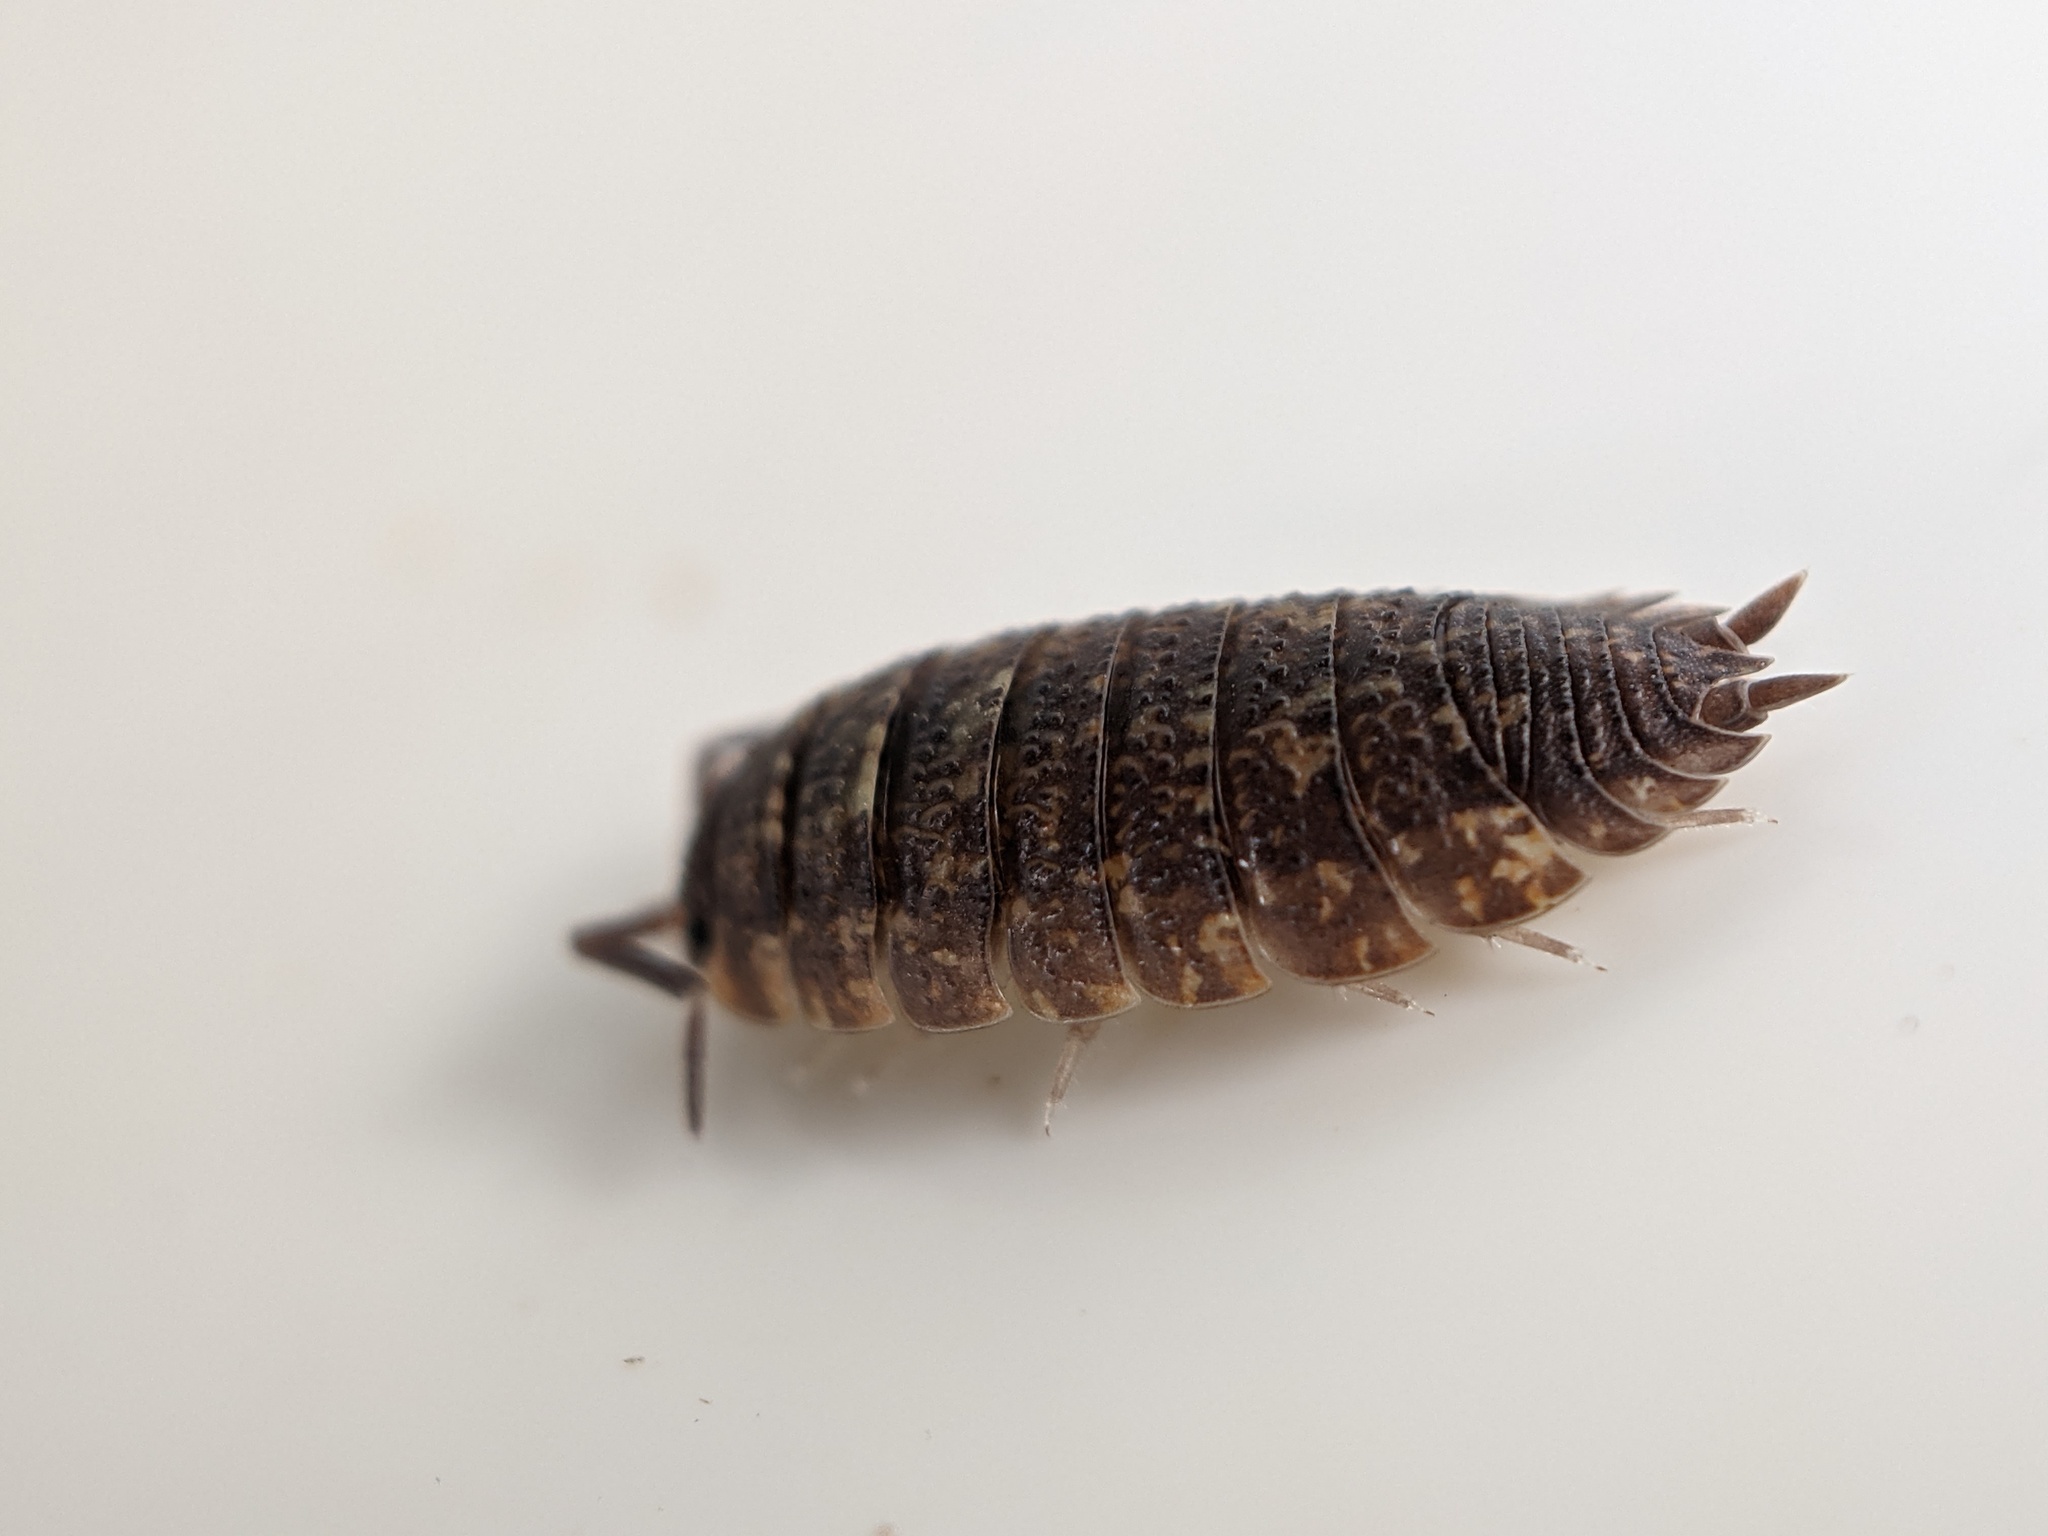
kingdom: Animalia
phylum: Arthropoda
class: Malacostraca
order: Isopoda
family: Porcellionidae
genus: Porcellio
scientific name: Porcellio scaber
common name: Common rough woodlouse
